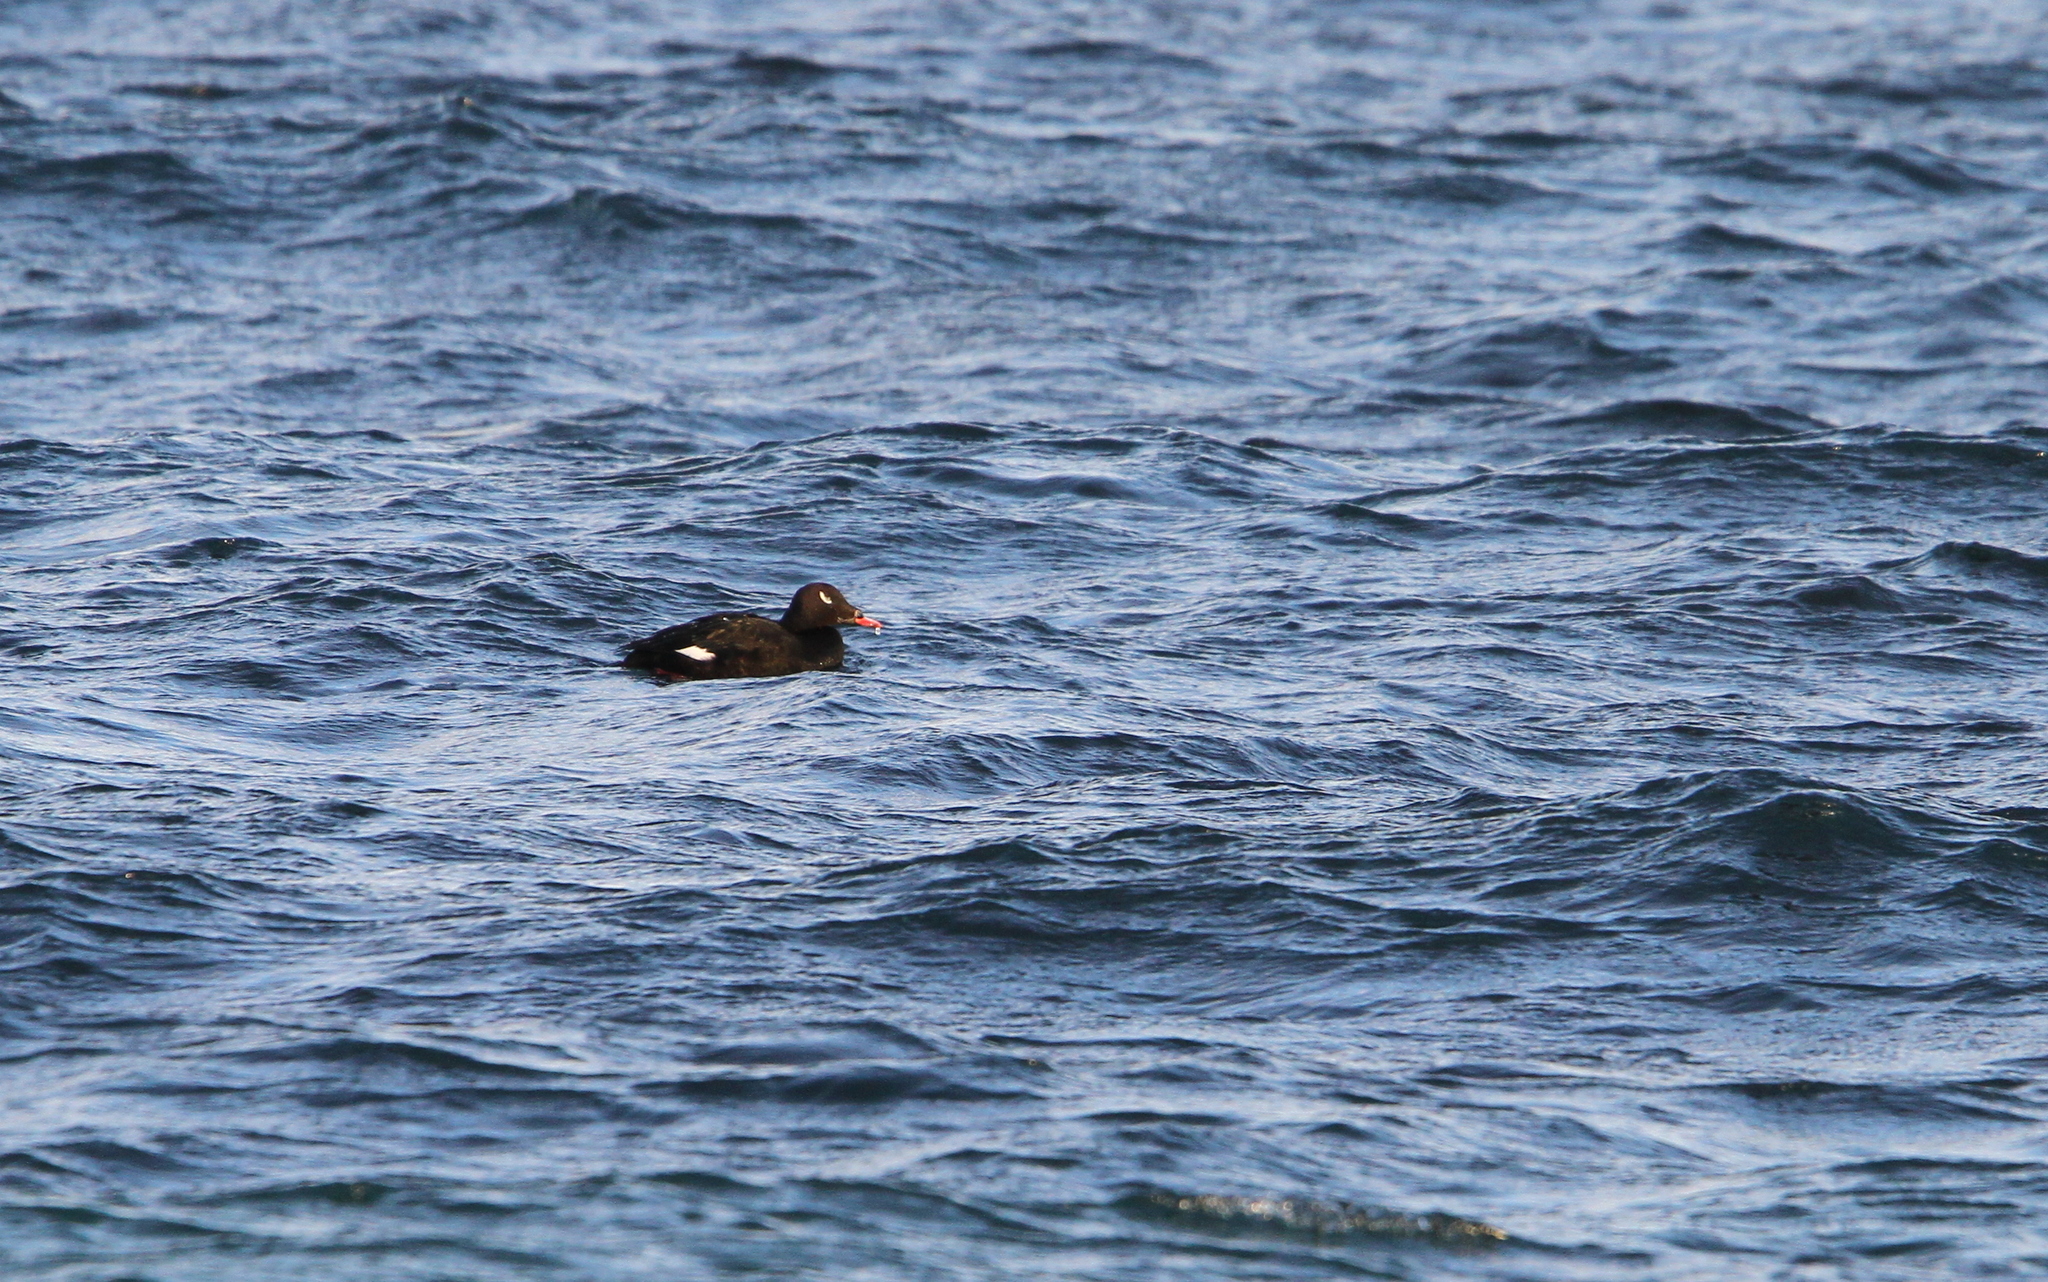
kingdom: Animalia
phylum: Chordata
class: Aves
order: Anseriformes
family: Anatidae
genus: Melanitta
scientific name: Melanitta deglandi
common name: White-winged scoter
